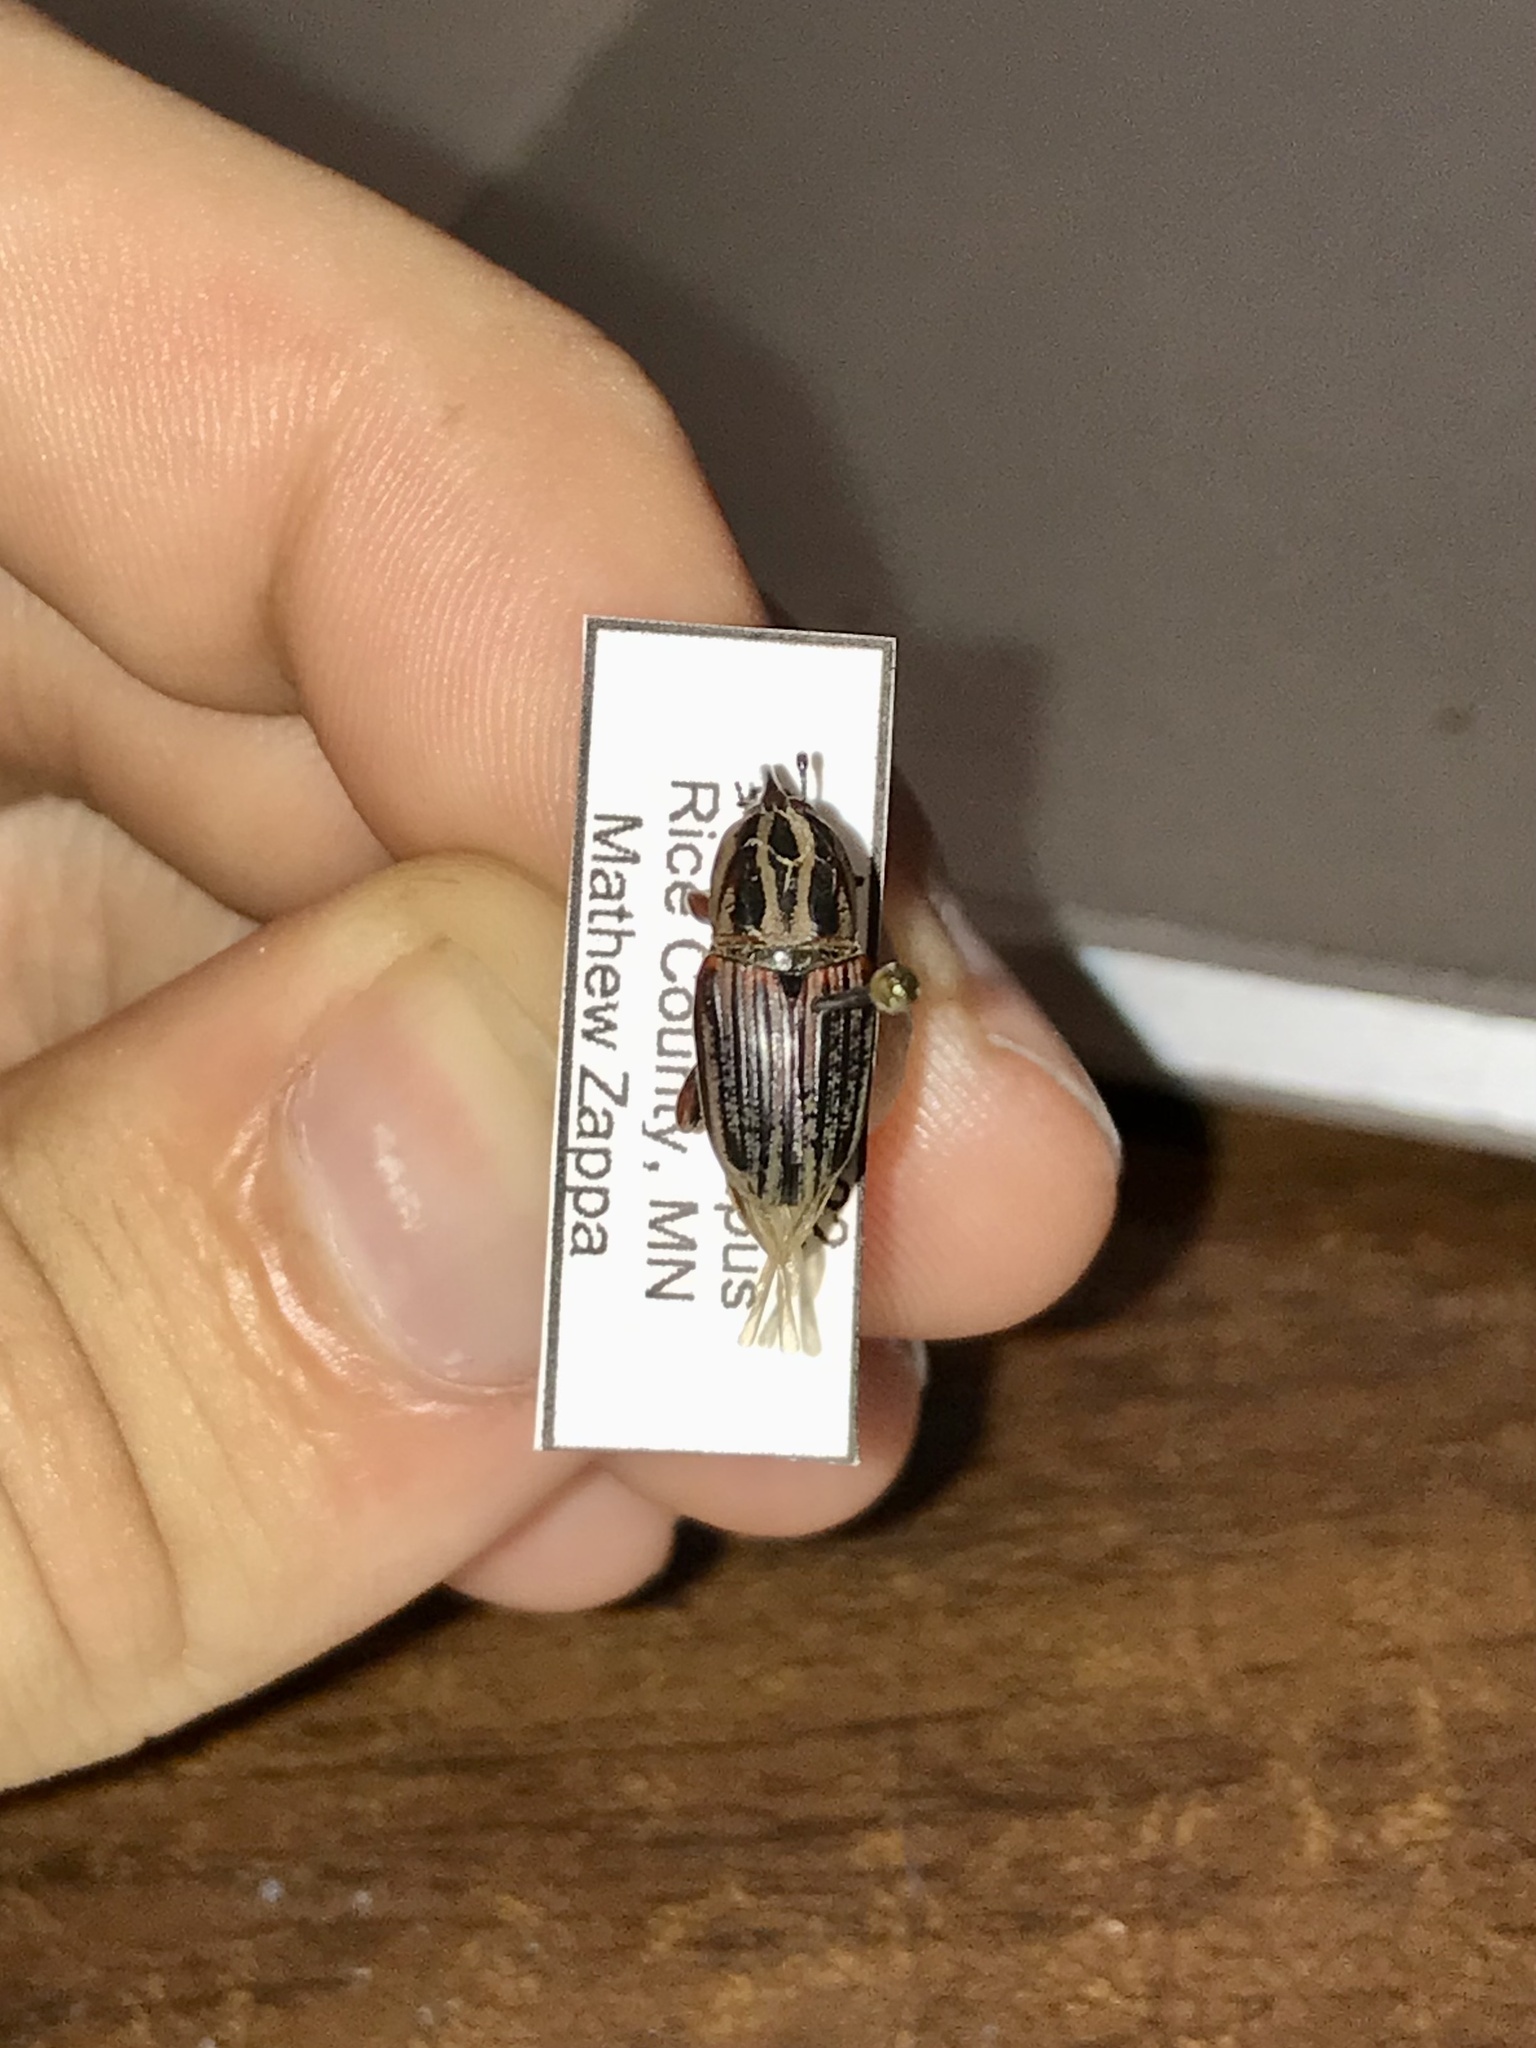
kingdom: Animalia
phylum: Arthropoda
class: Insecta
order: Coleoptera
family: Dryophthoridae
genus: Sphenophorus
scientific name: Sphenophorus australis
